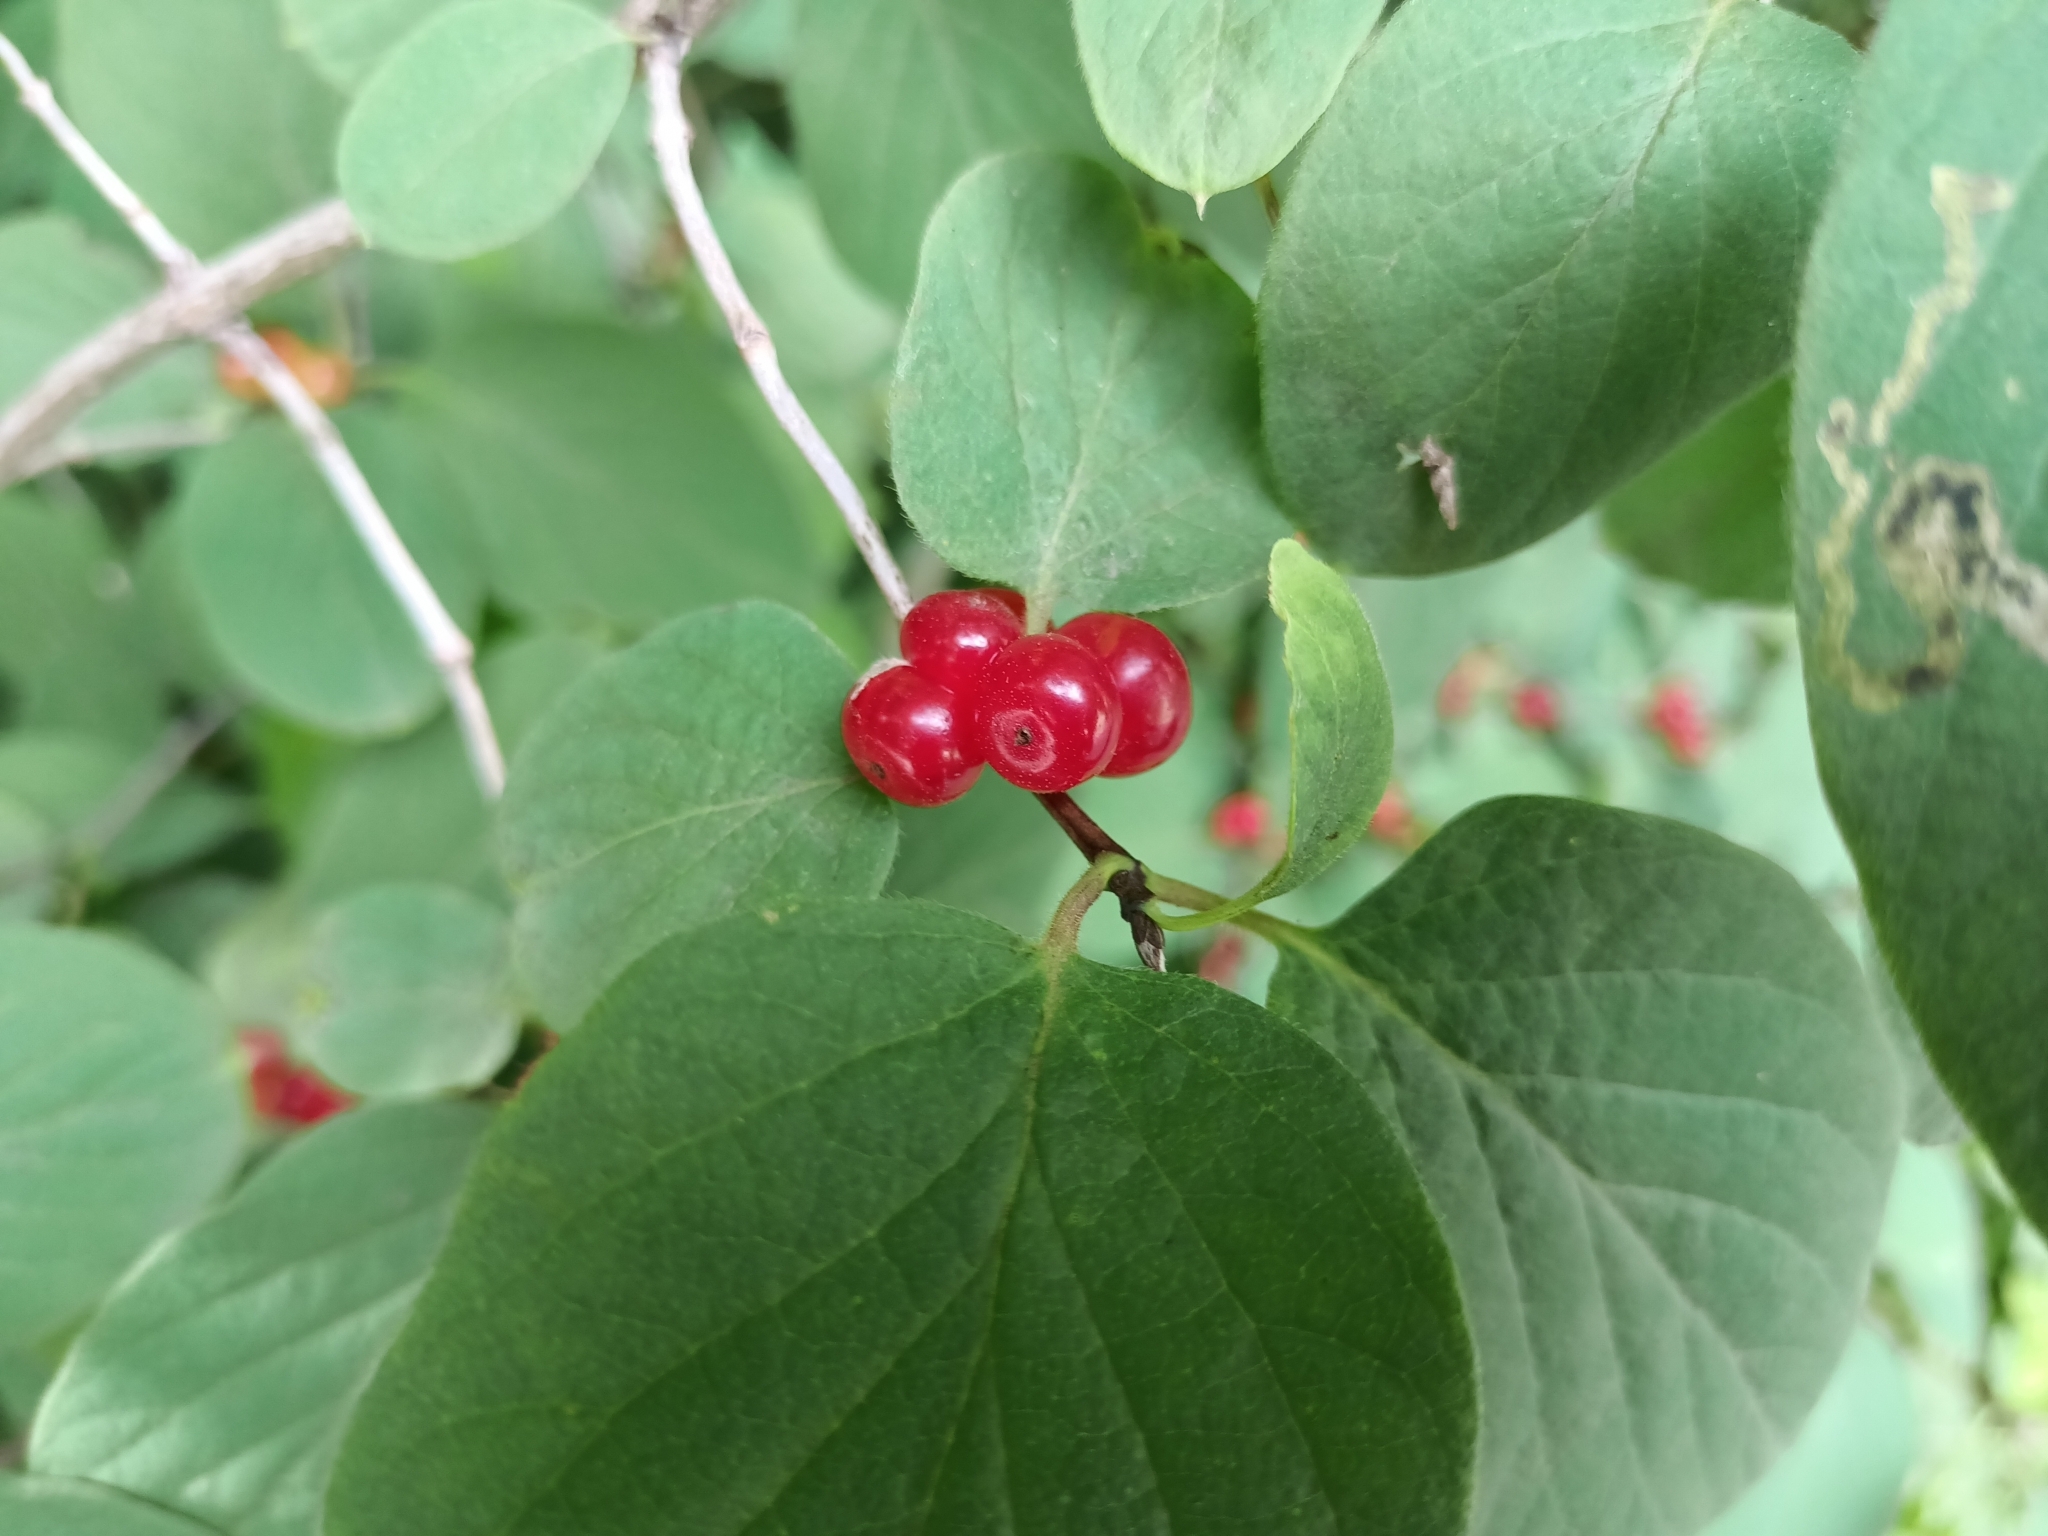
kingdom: Plantae
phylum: Tracheophyta
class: Magnoliopsida
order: Dipsacales
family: Caprifoliaceae
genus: Lonicera
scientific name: Lonicera xylosteum
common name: Fly honeysuckle
